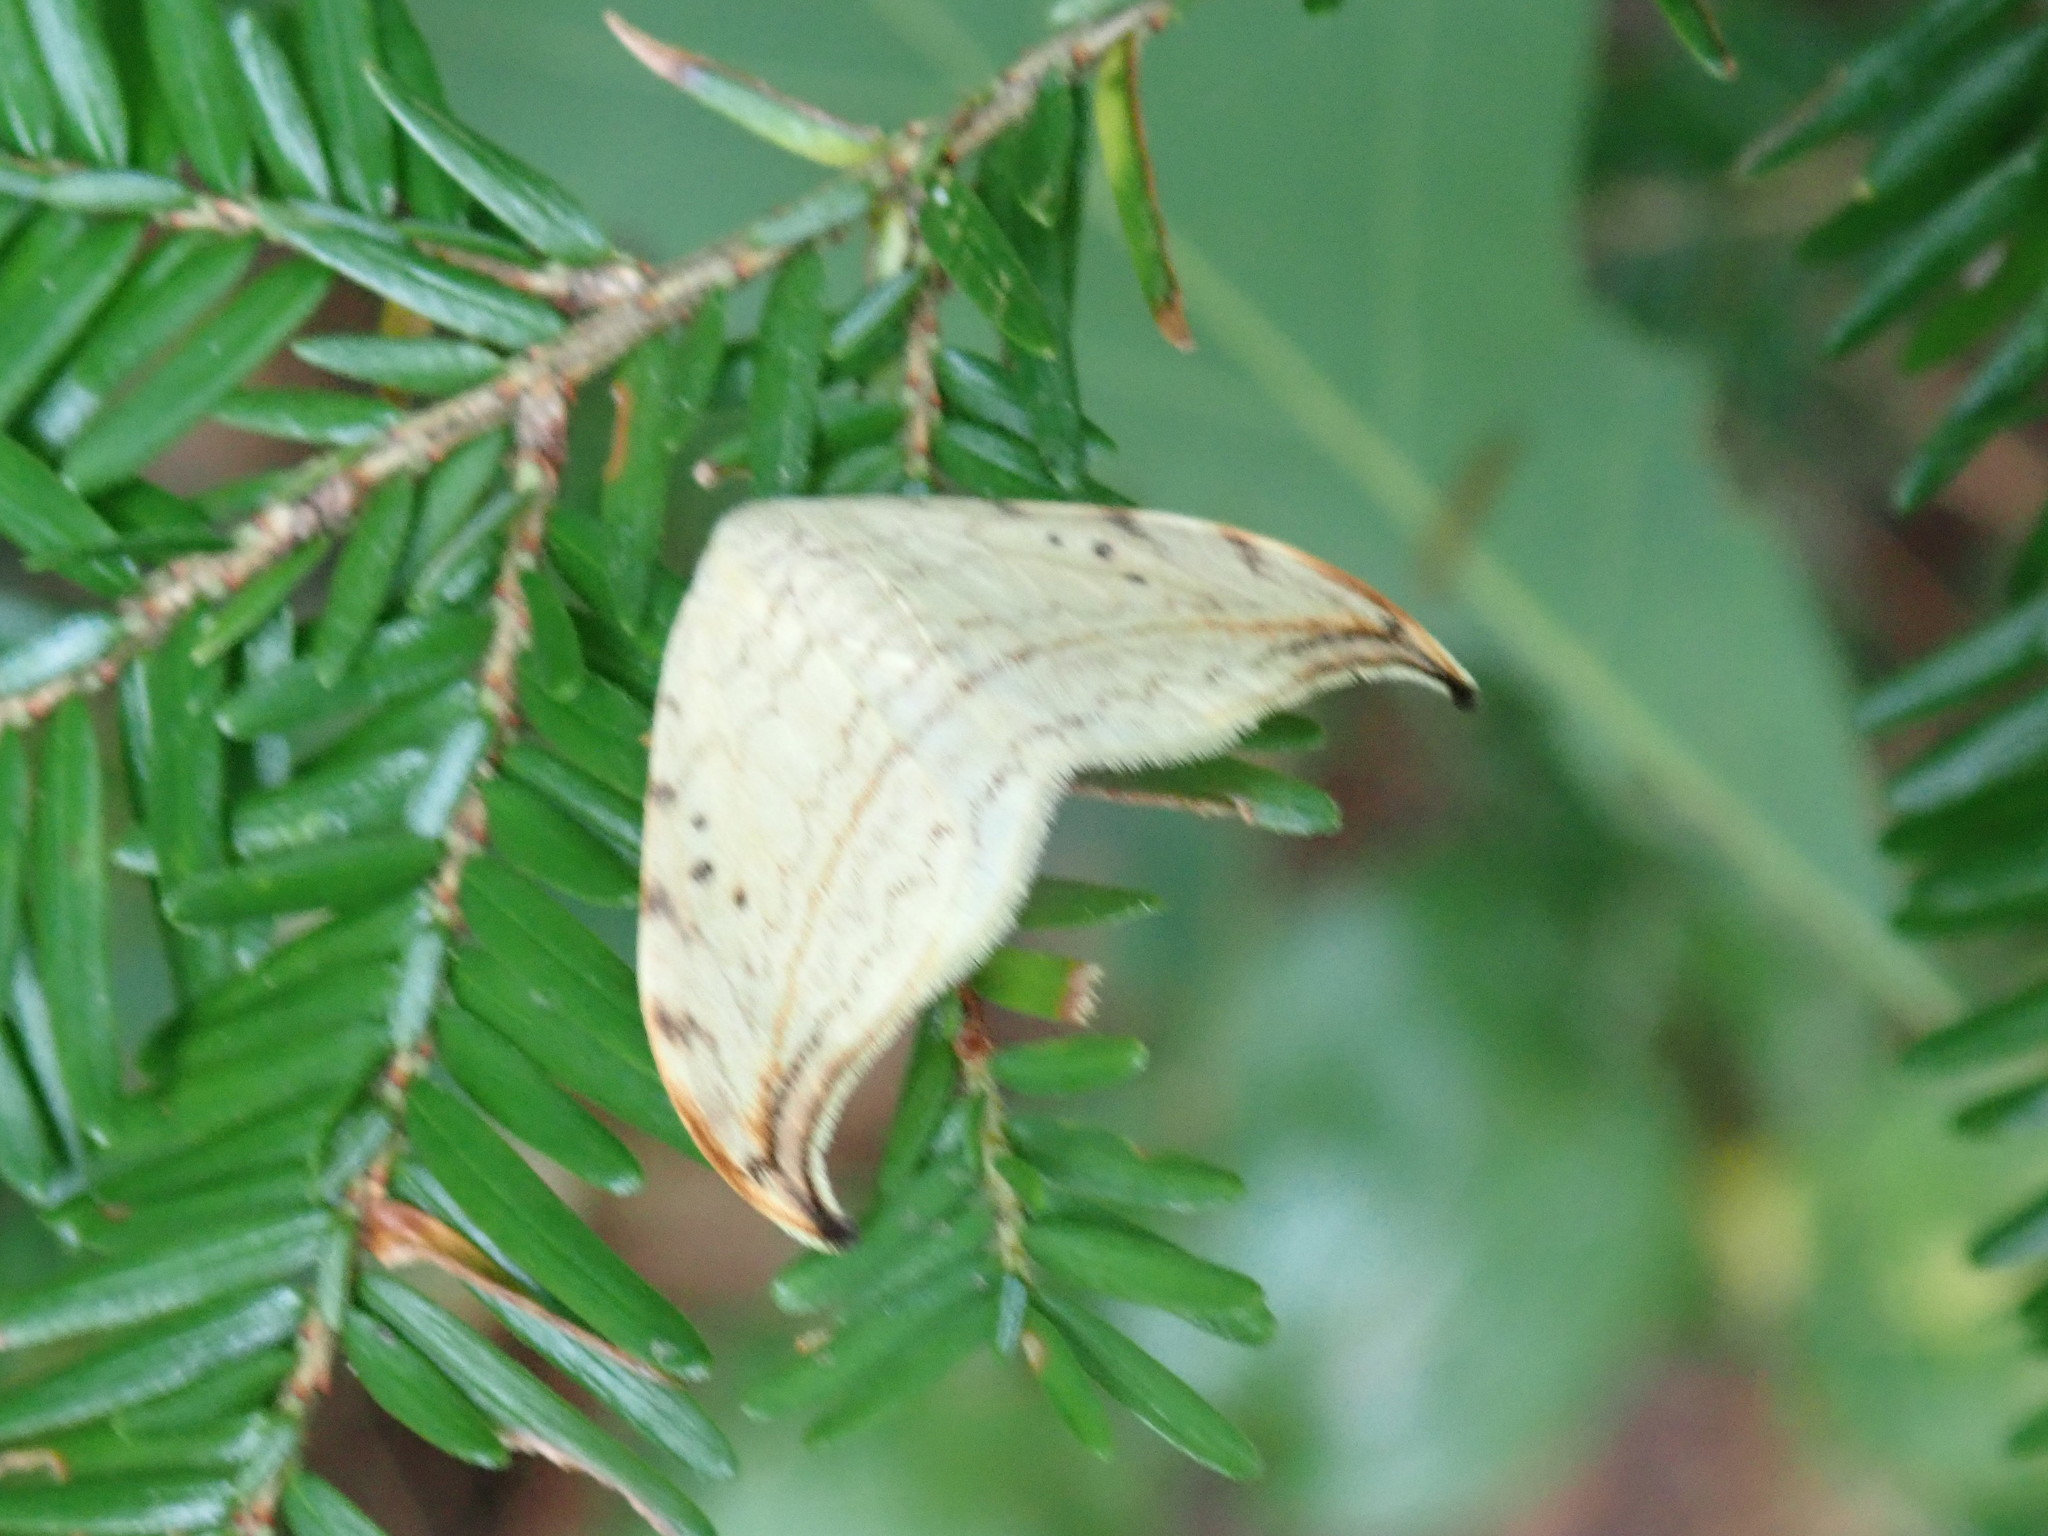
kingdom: Animalia
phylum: Arthropoda
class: Insecta
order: Lepidoptera
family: Drepanidae
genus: Drepana
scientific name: Drepana arcuata
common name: Arched hooktip moth
